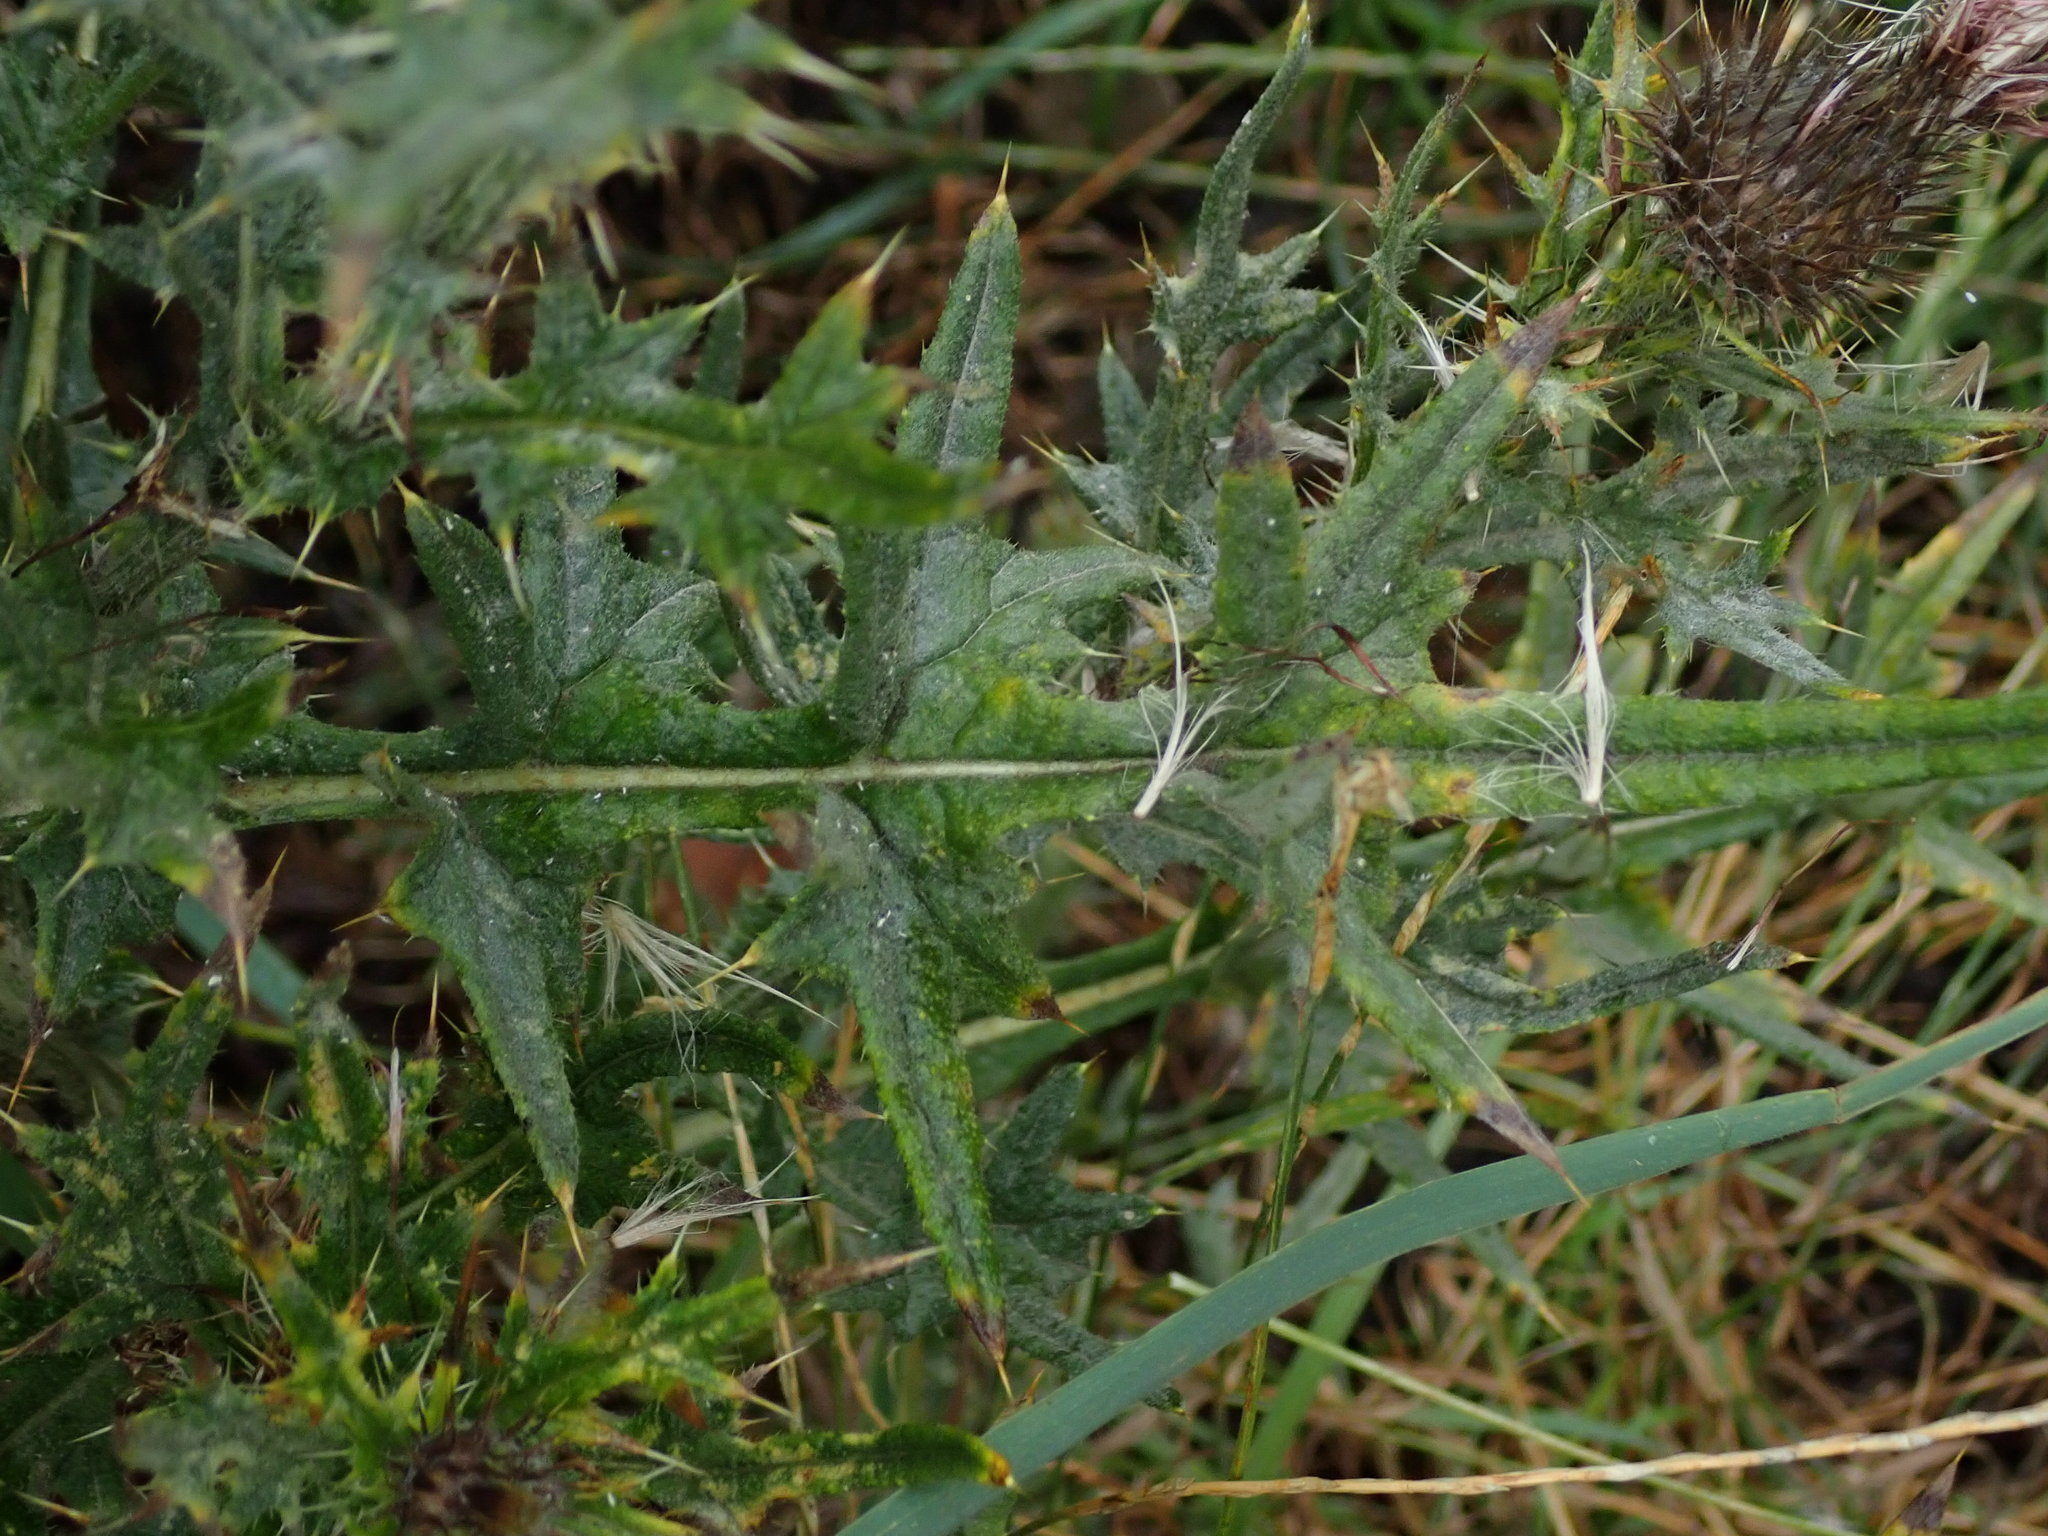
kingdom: Plantae
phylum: Tracheophyta
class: Magnoliopsida
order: Asterales
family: Asteraceae
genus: Cirsium
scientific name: Cirsium vulgare
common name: Bull thistle
